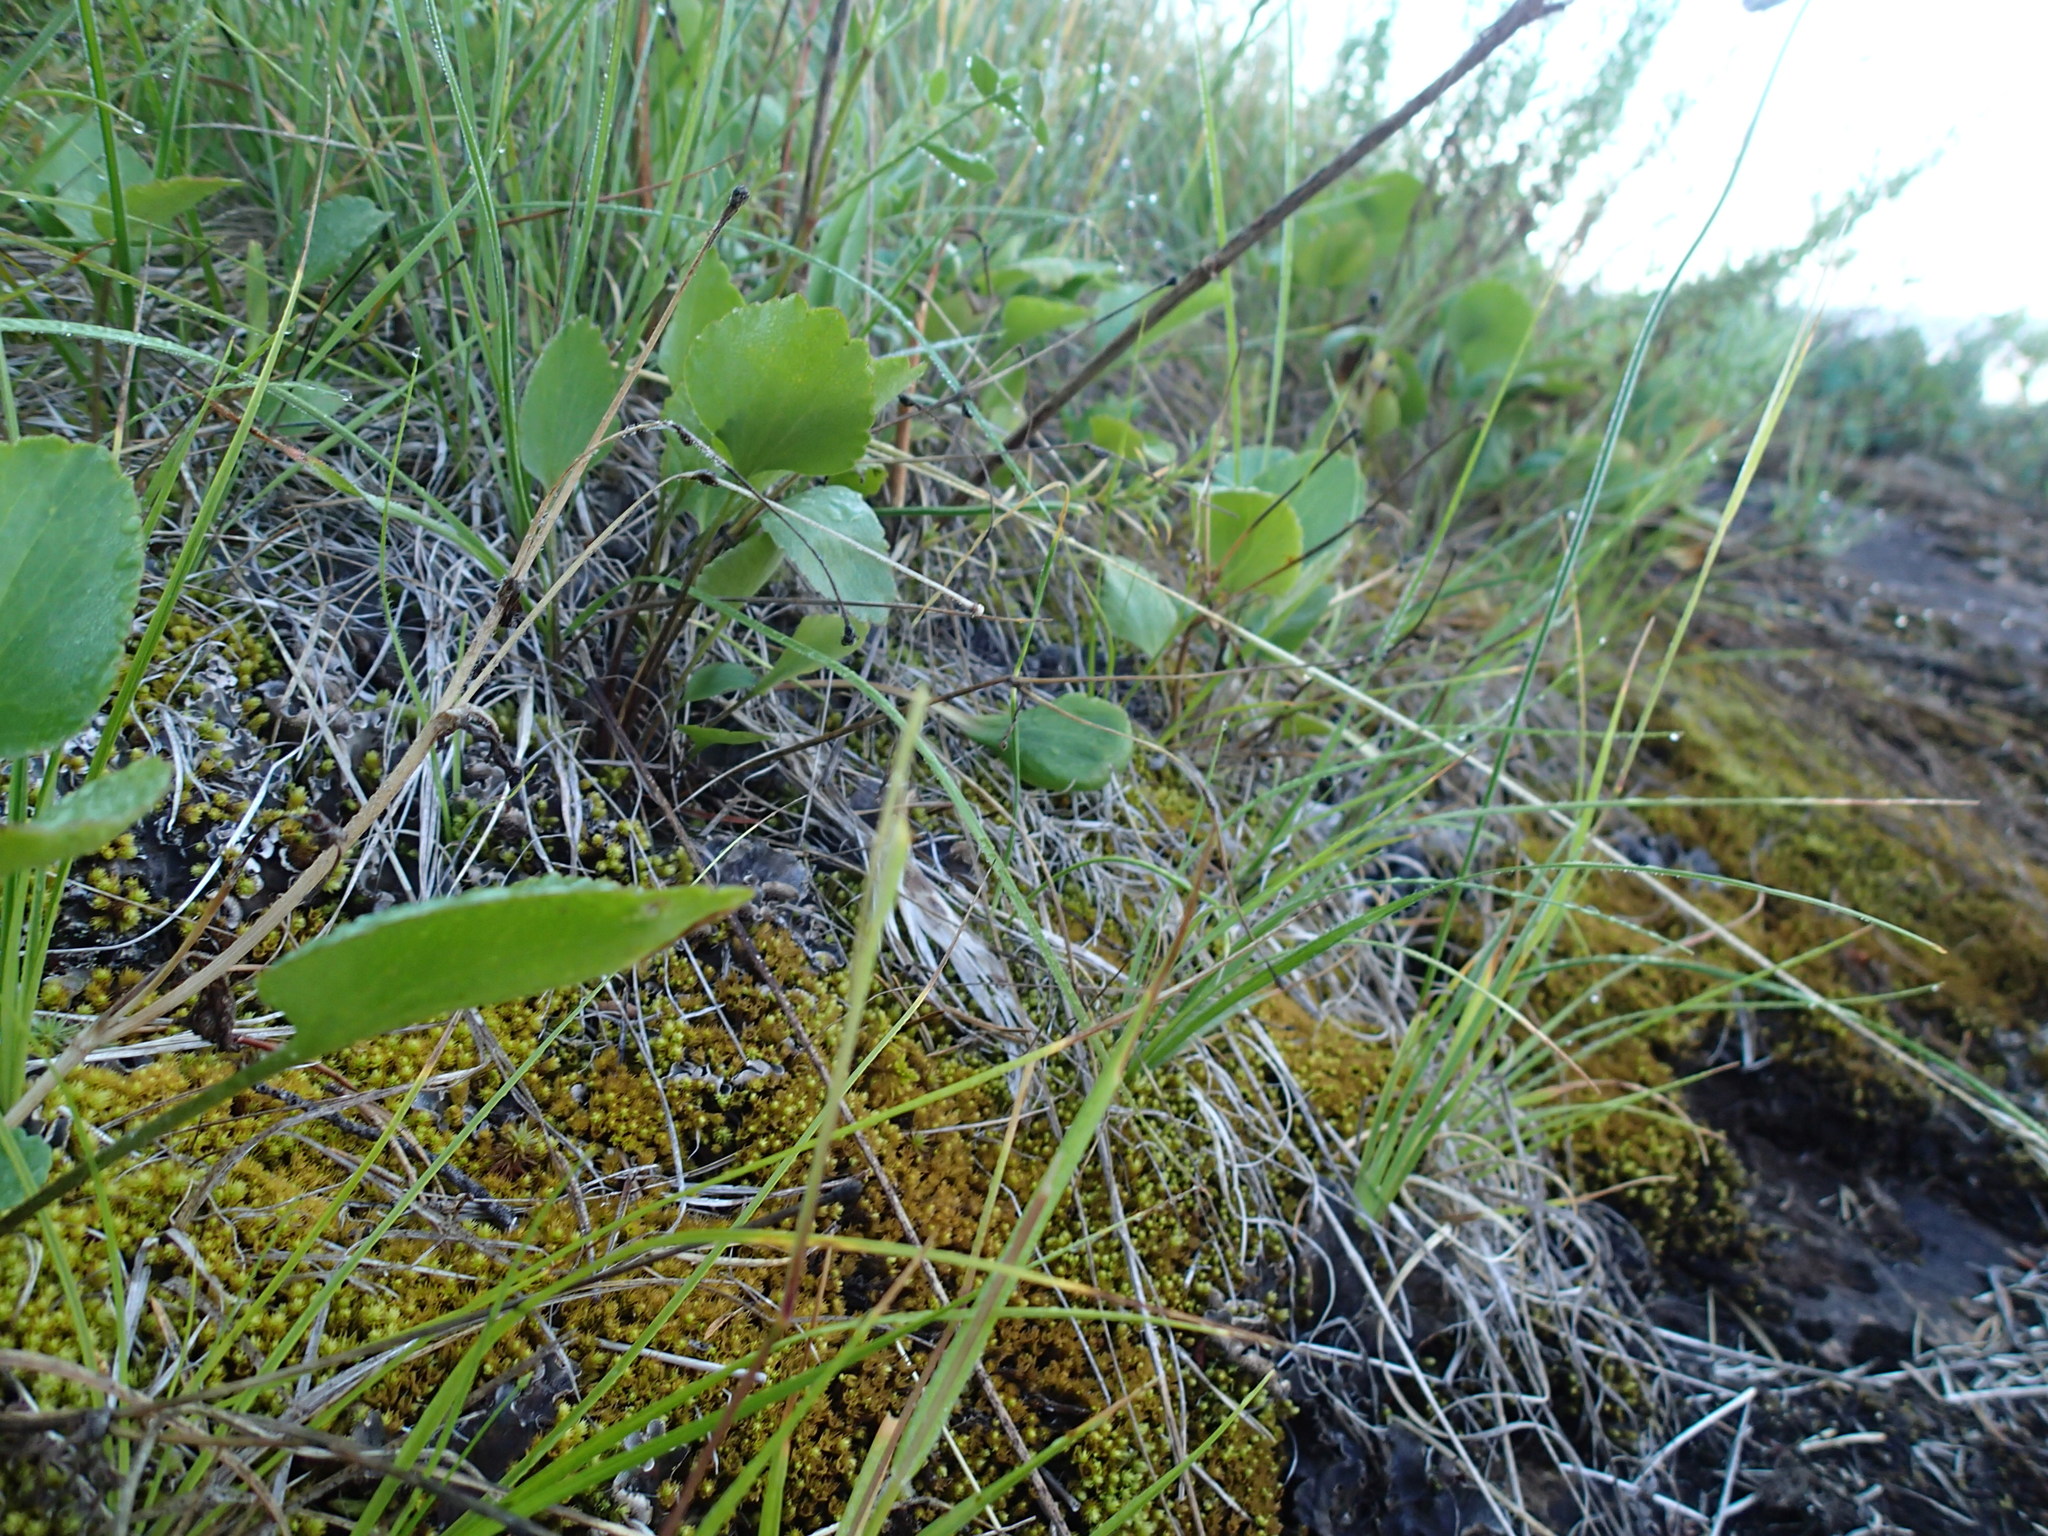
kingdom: Plantae
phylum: Tracheophyta
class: Magnoliopsida
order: Ranunculales
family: Ranunculaceae
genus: Ranunculus
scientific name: Ranunculus rhomboideus
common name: Prairie buttercup
